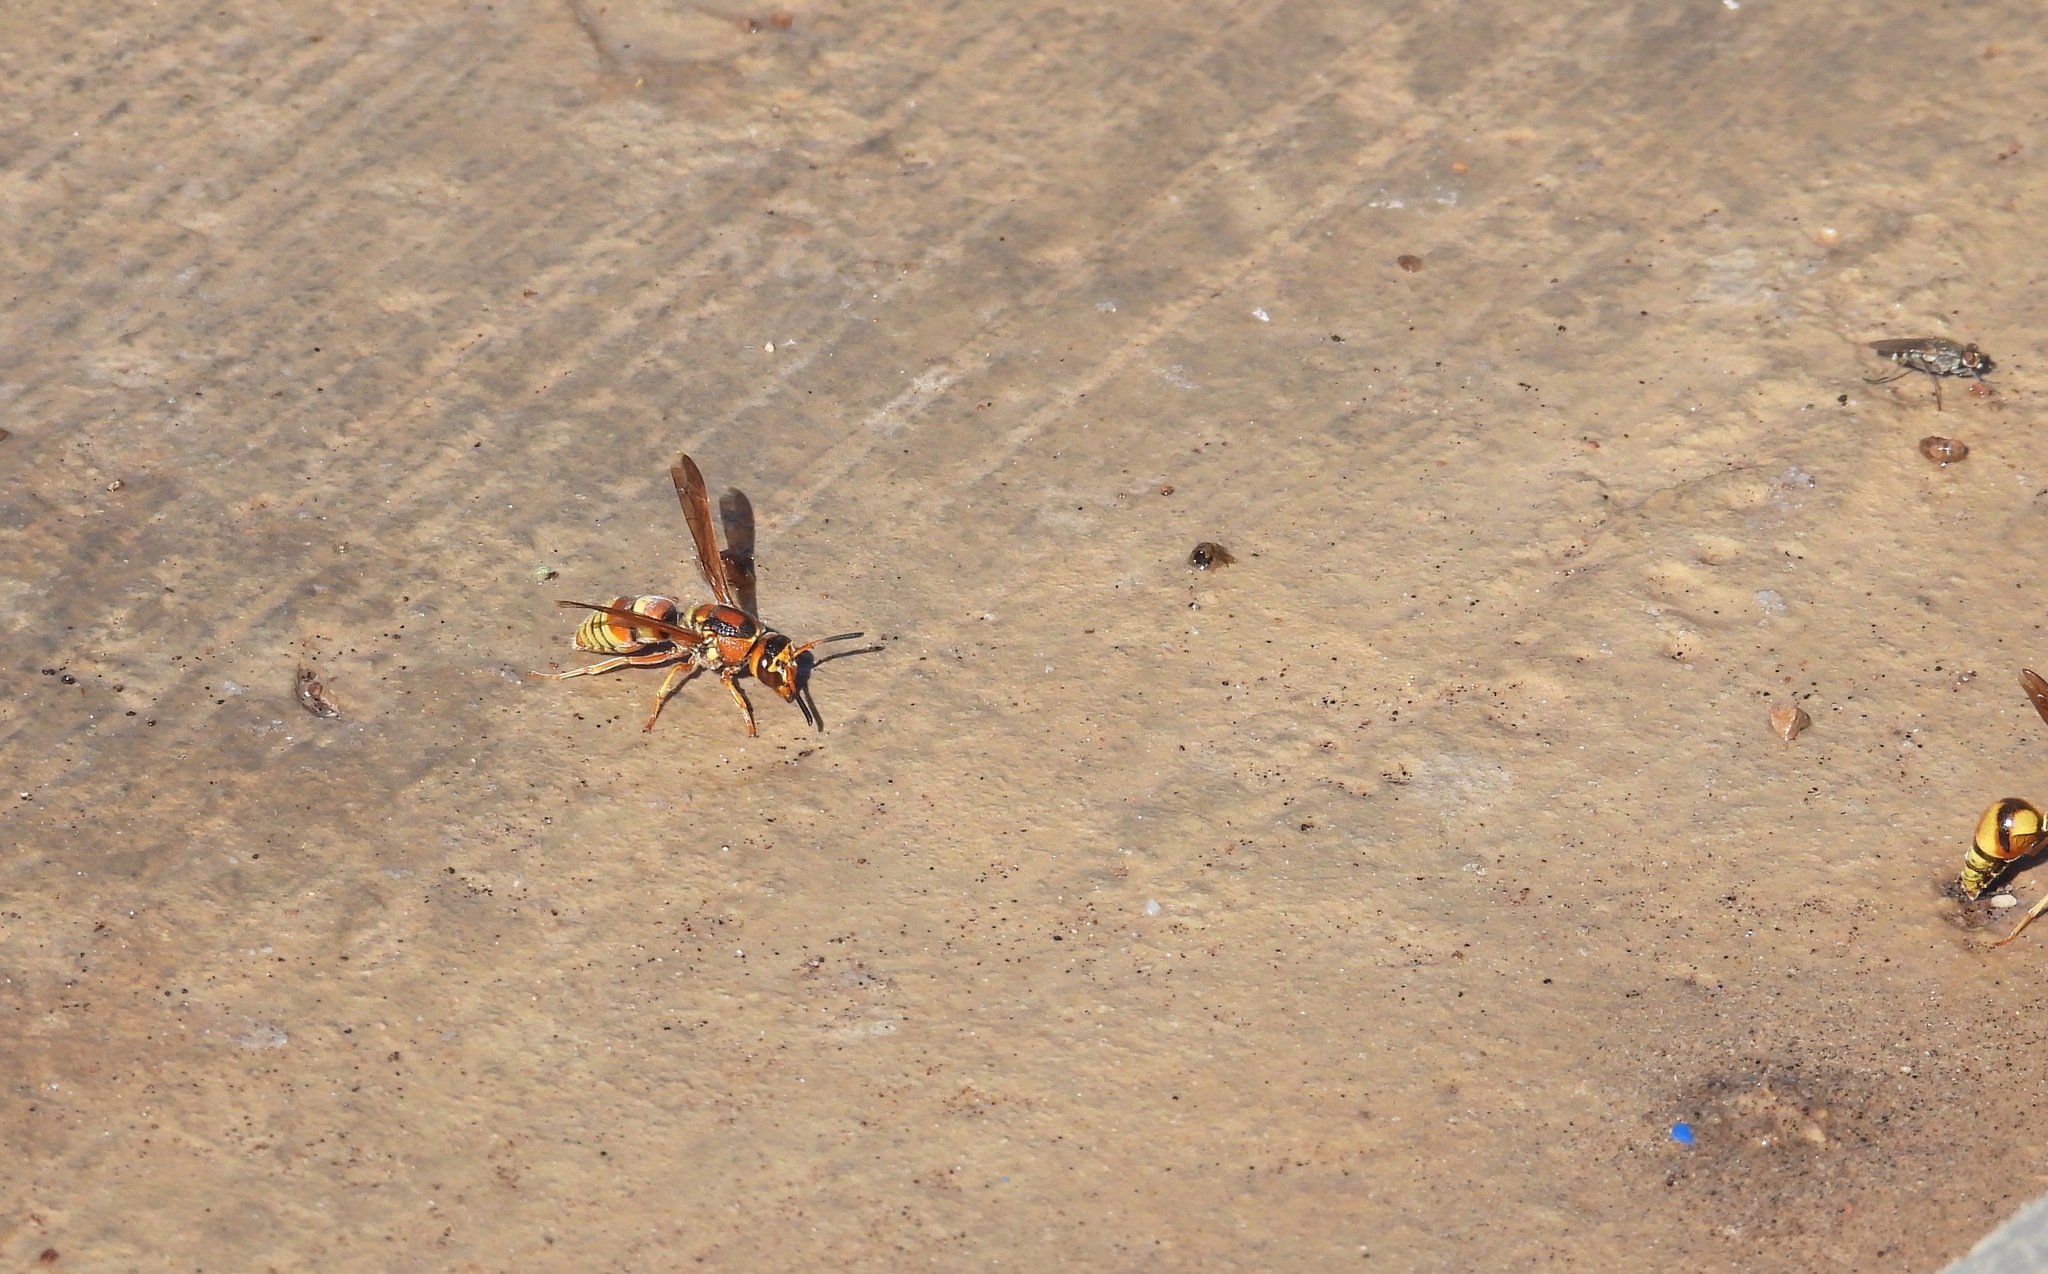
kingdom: Animalia
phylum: Arthropoda
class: Insecta
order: Hymenoptera
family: Eumenidae
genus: Euodynerus
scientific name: Euodynerus pratensis
